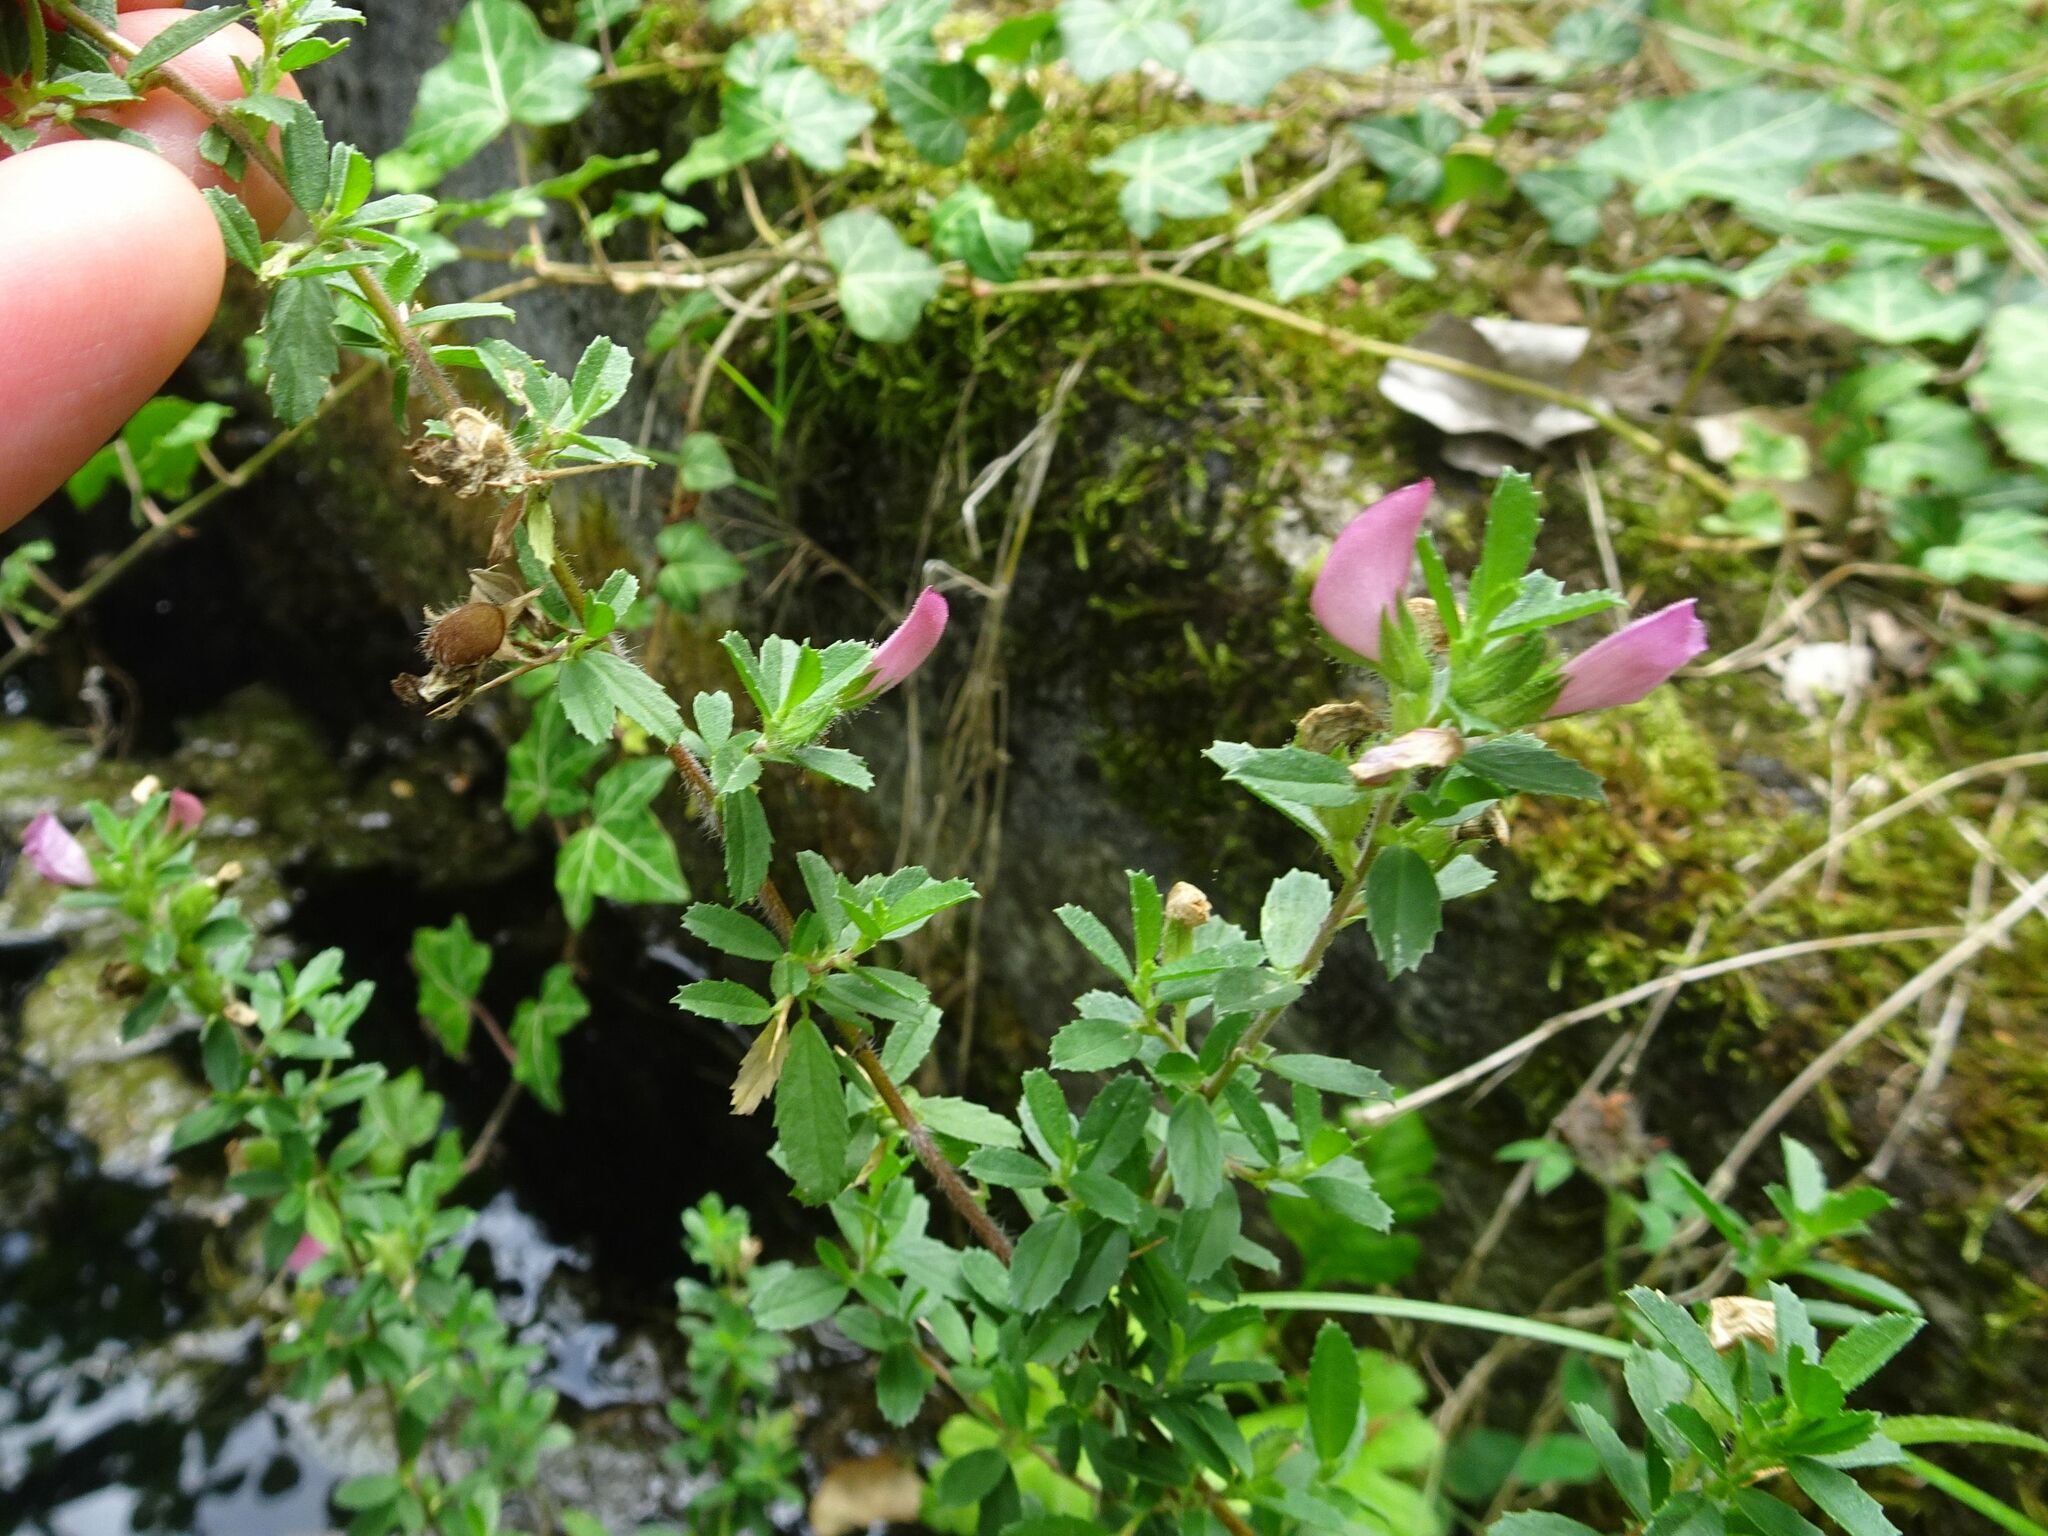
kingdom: Plantae
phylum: Tracheophyta
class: Magnoliopsida
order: Fabales
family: Fabaceae
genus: Ononis
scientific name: Ononis spinosa
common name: Spiny restharrow
